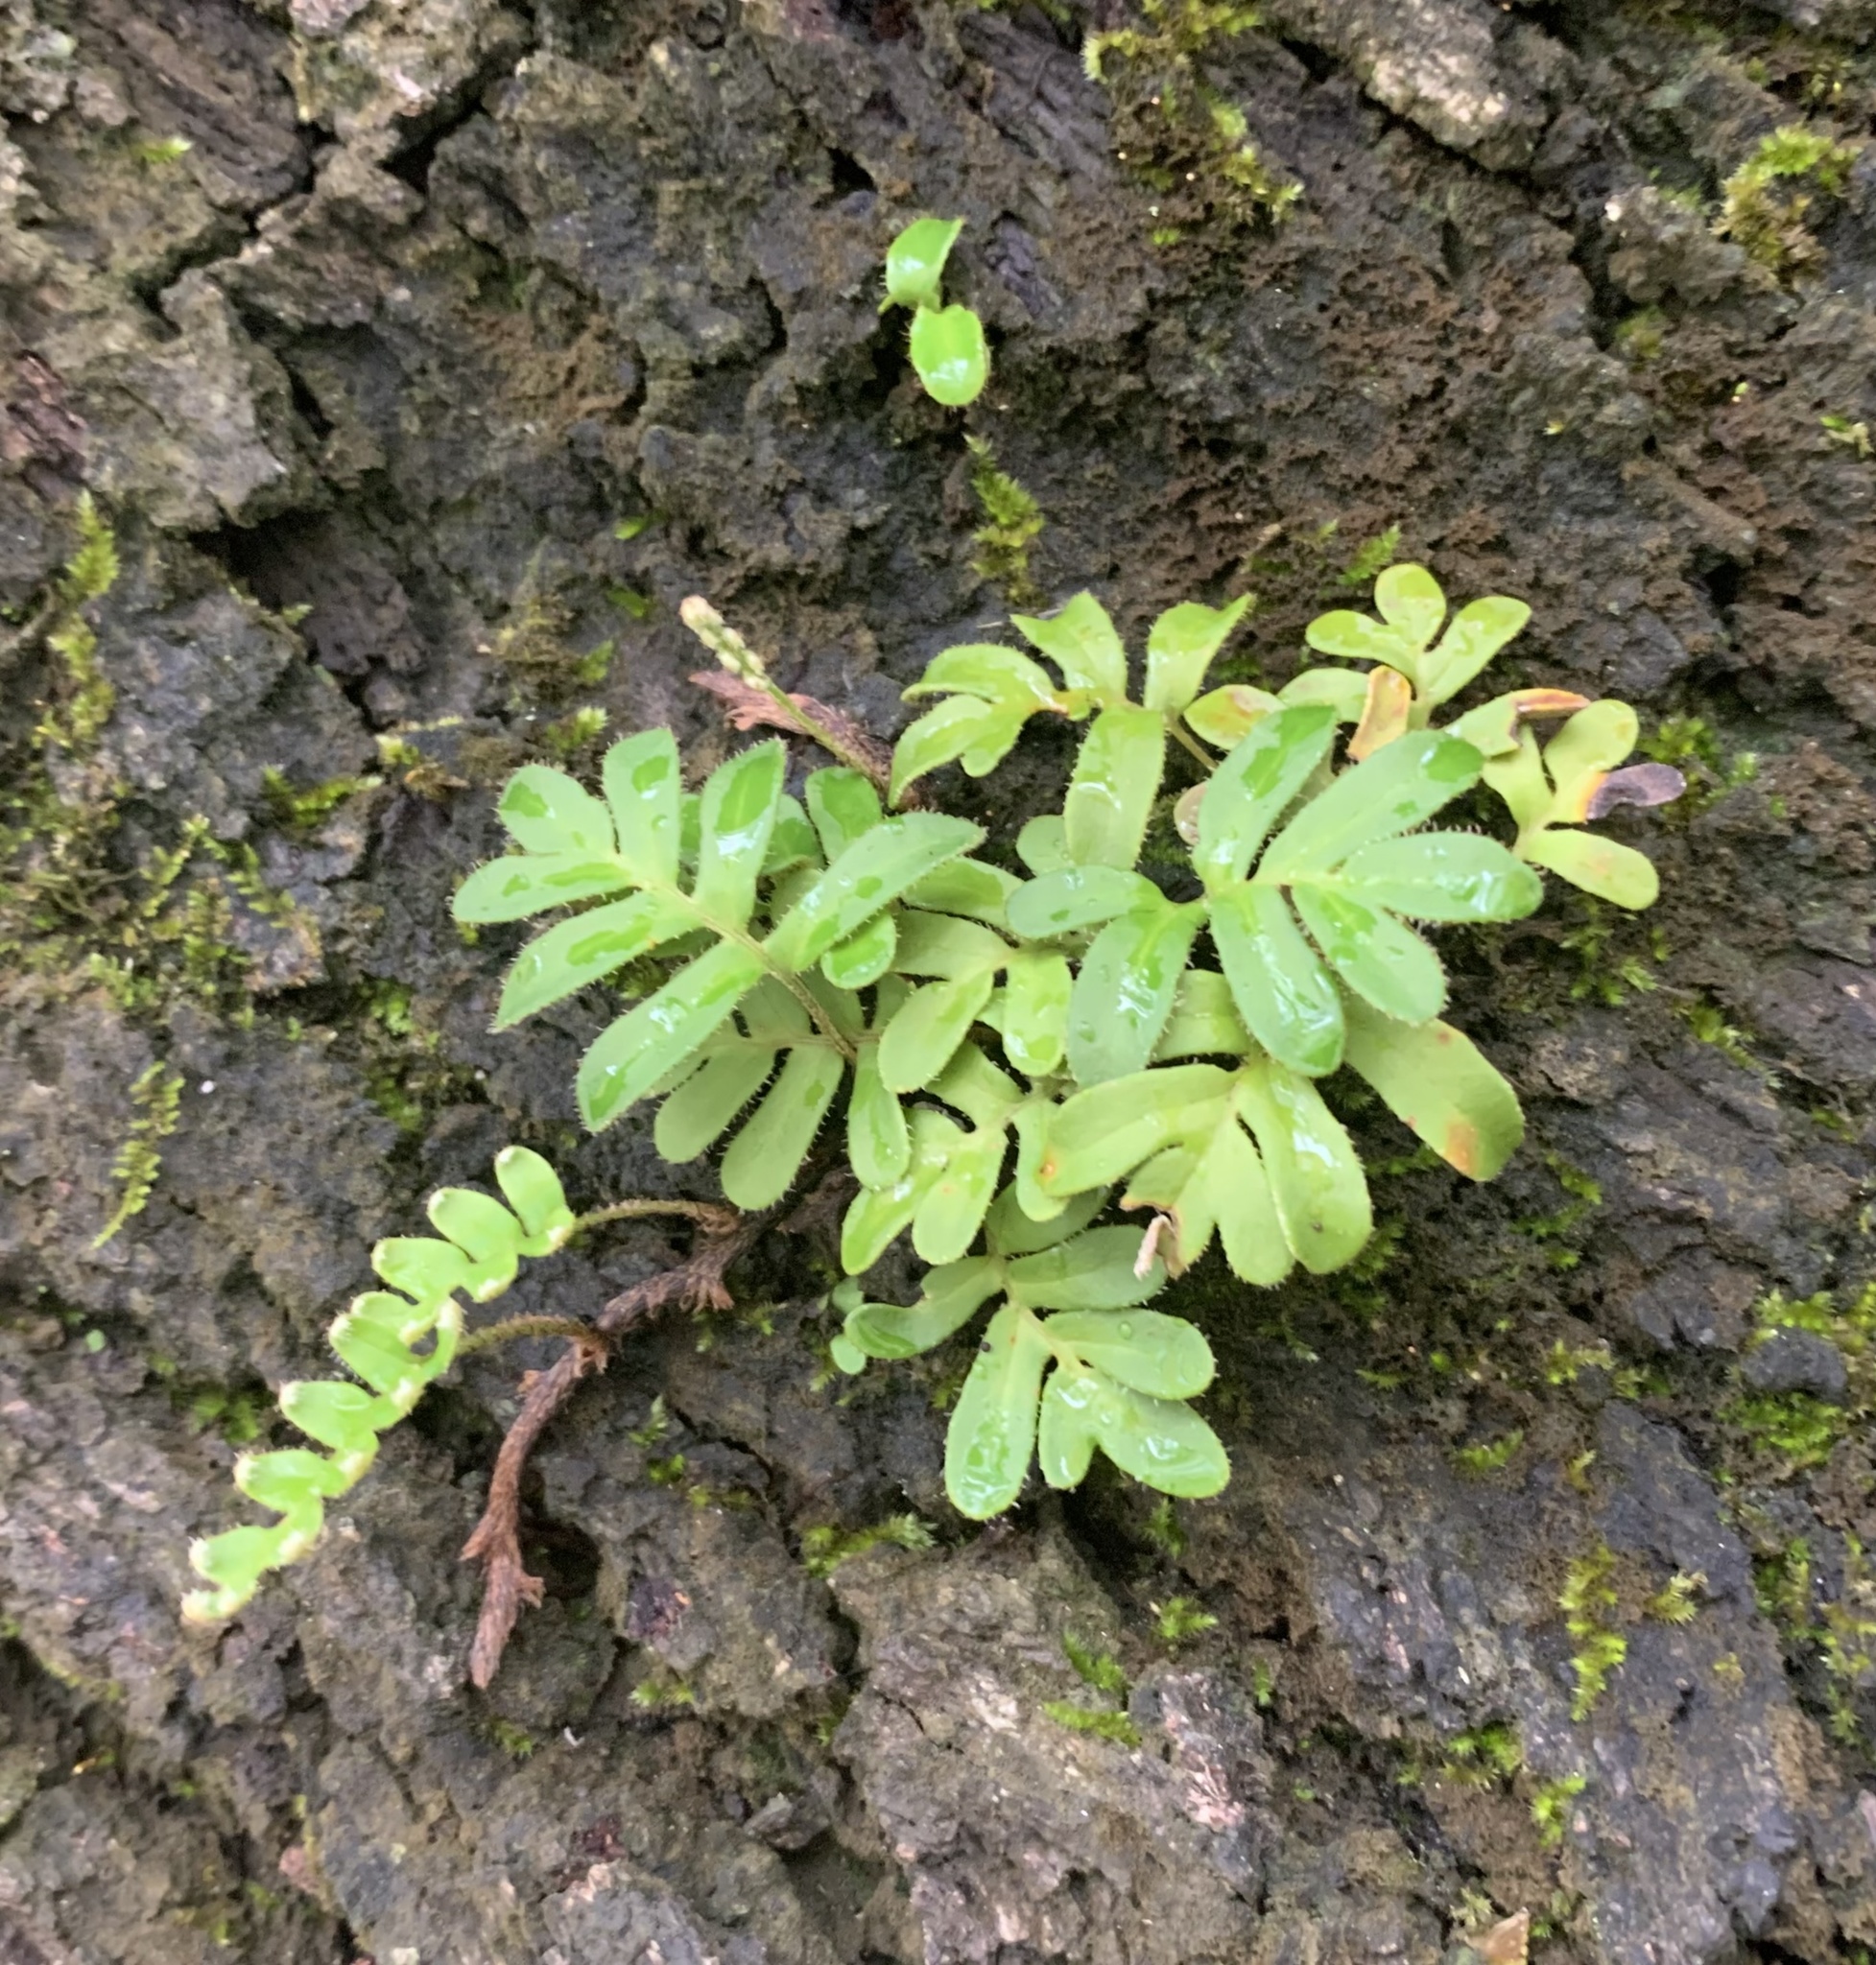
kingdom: Plantae
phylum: Tracheophyta
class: Polypodiopsida
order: Polypodiales
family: Polypodiaceae
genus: Pleopeltis
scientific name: Pleopeltis michauxiana
